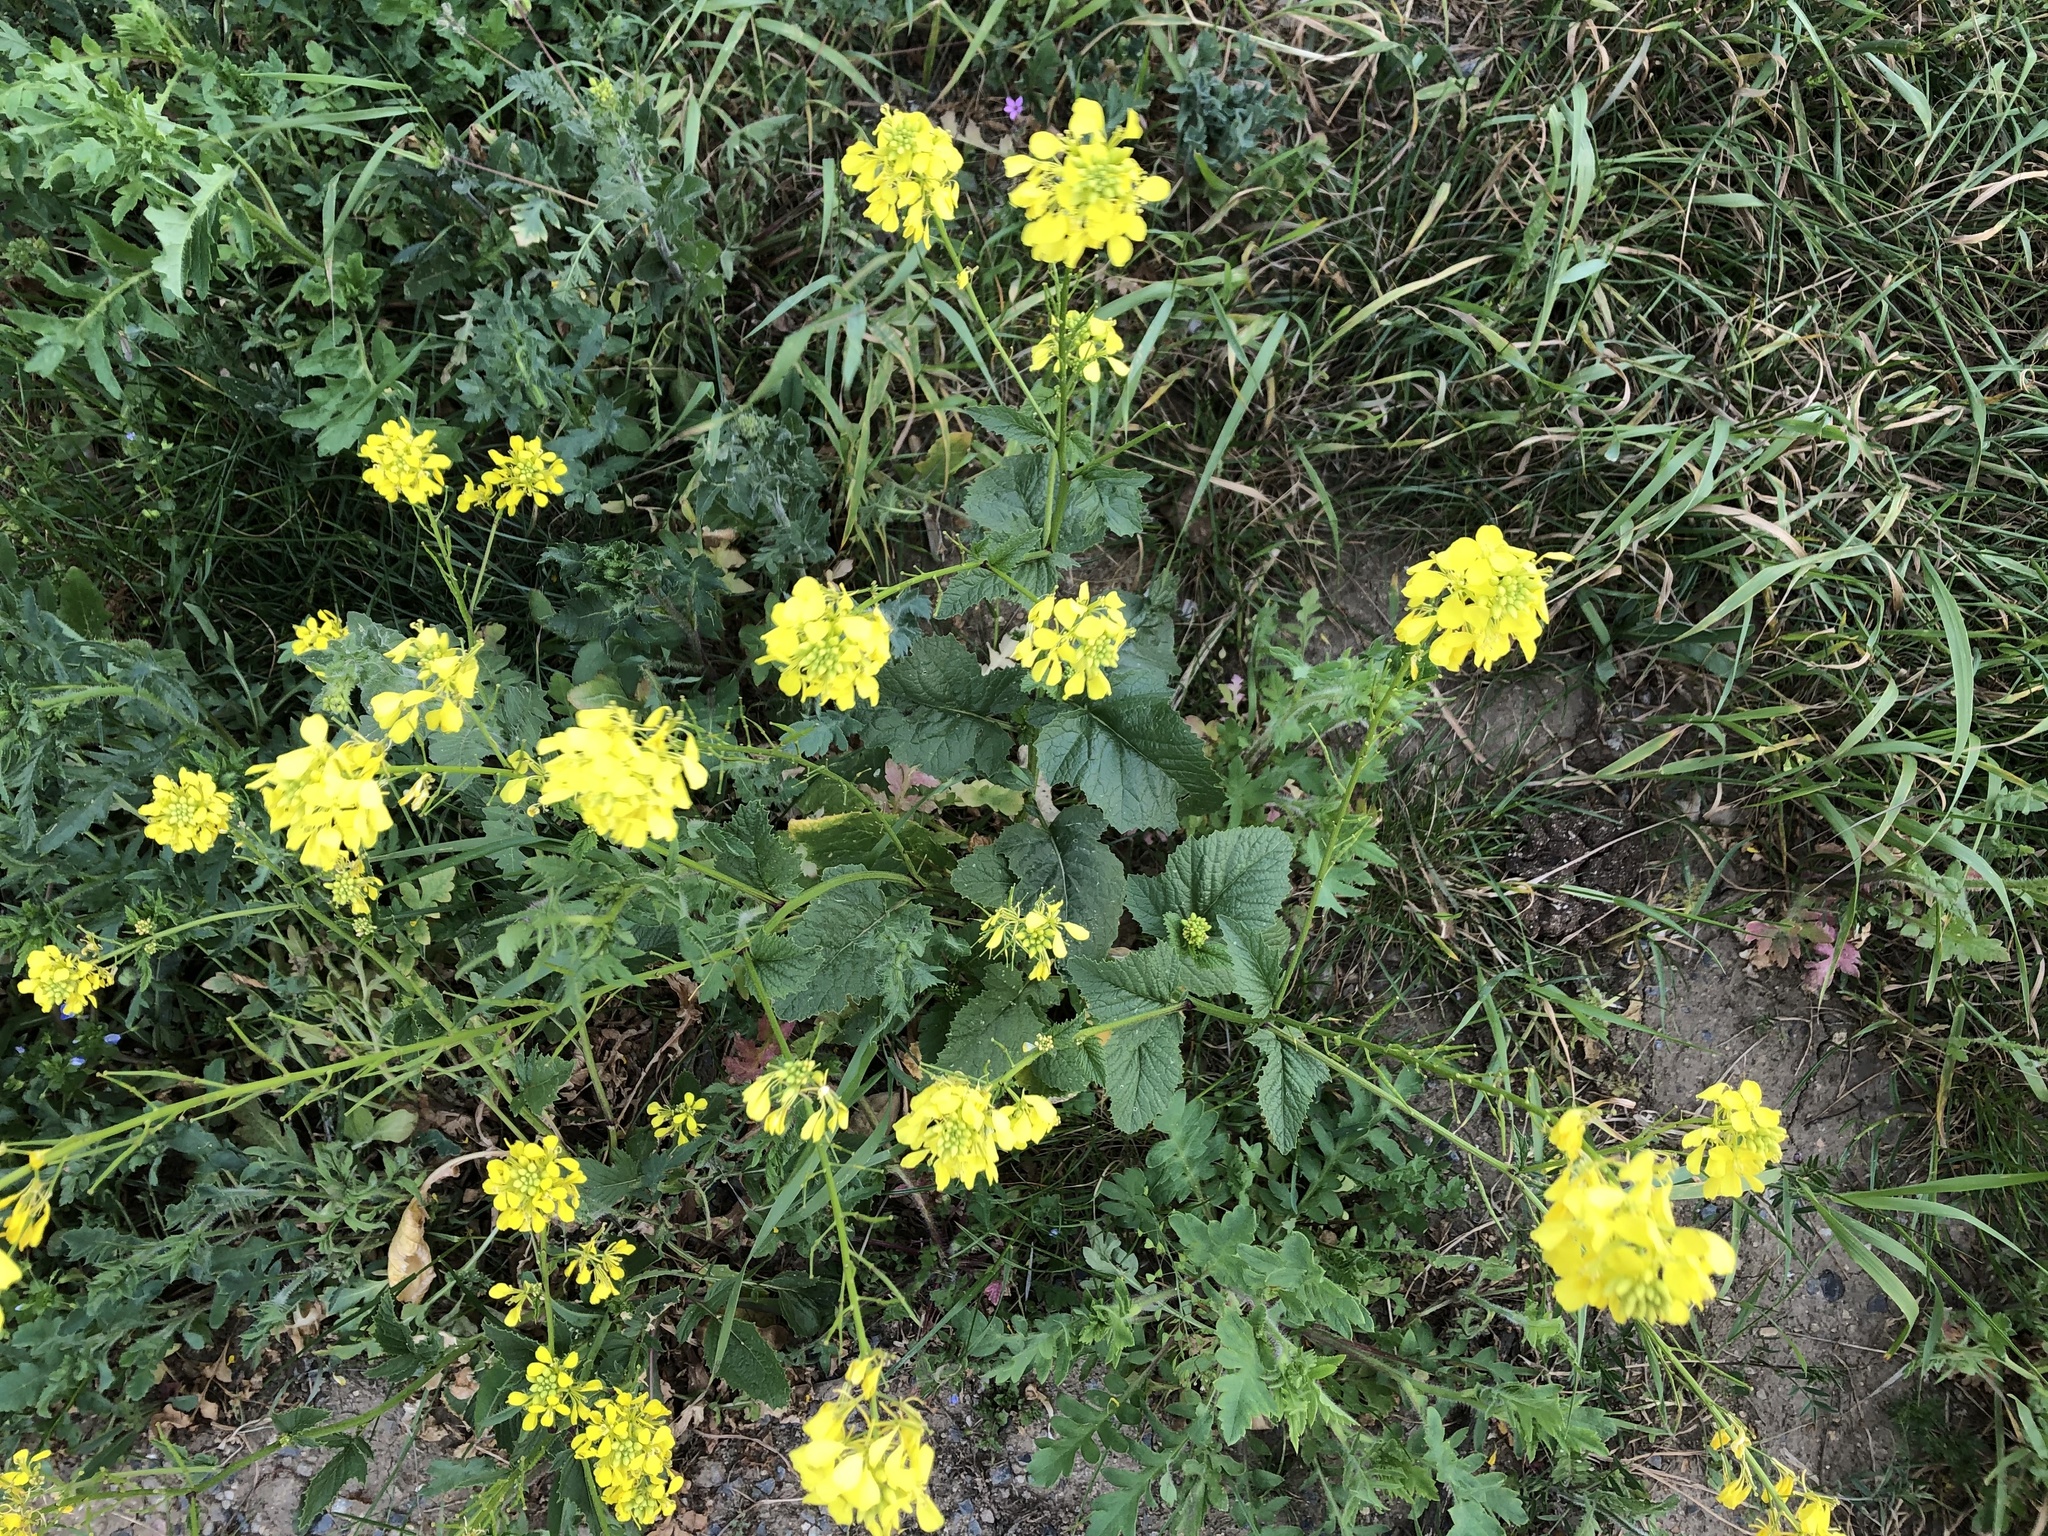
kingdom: Plantae
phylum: Tracheophyta
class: Magnoliopsida
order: Brassicales
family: Brassicaceae
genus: Sinapis
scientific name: Sinapis arvensis
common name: Charlock
